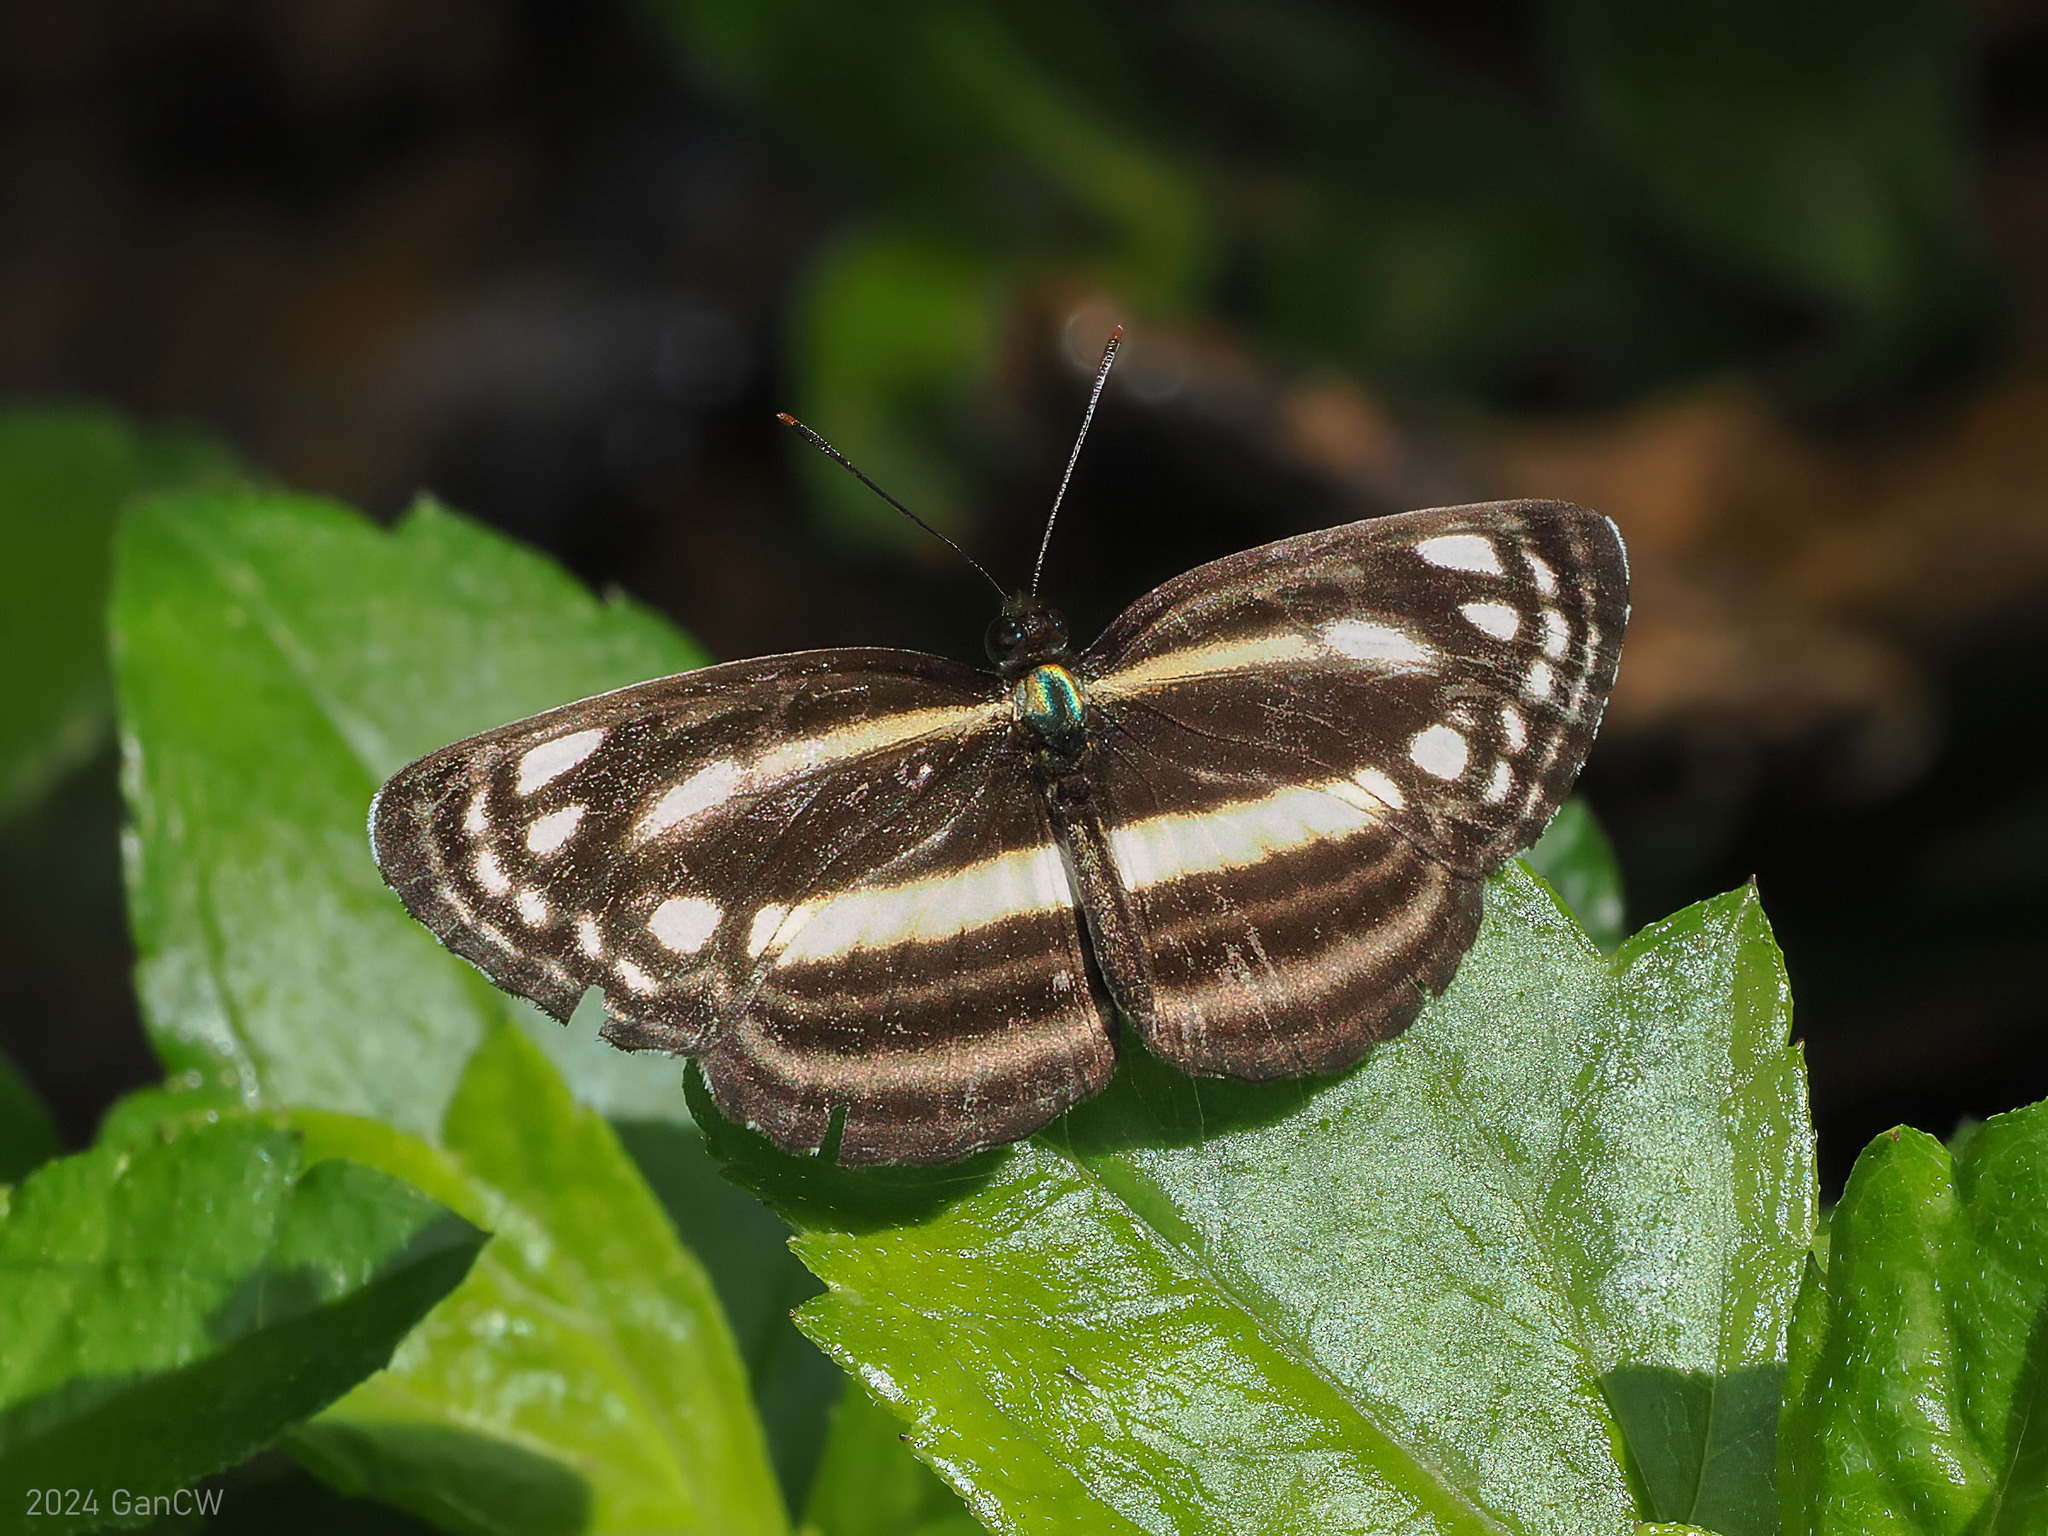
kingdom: Animalia
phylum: Arthropoda
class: Insecta
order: Lepidoptera
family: Nymphalidae
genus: Pantoporia
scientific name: Pantoporia dama
